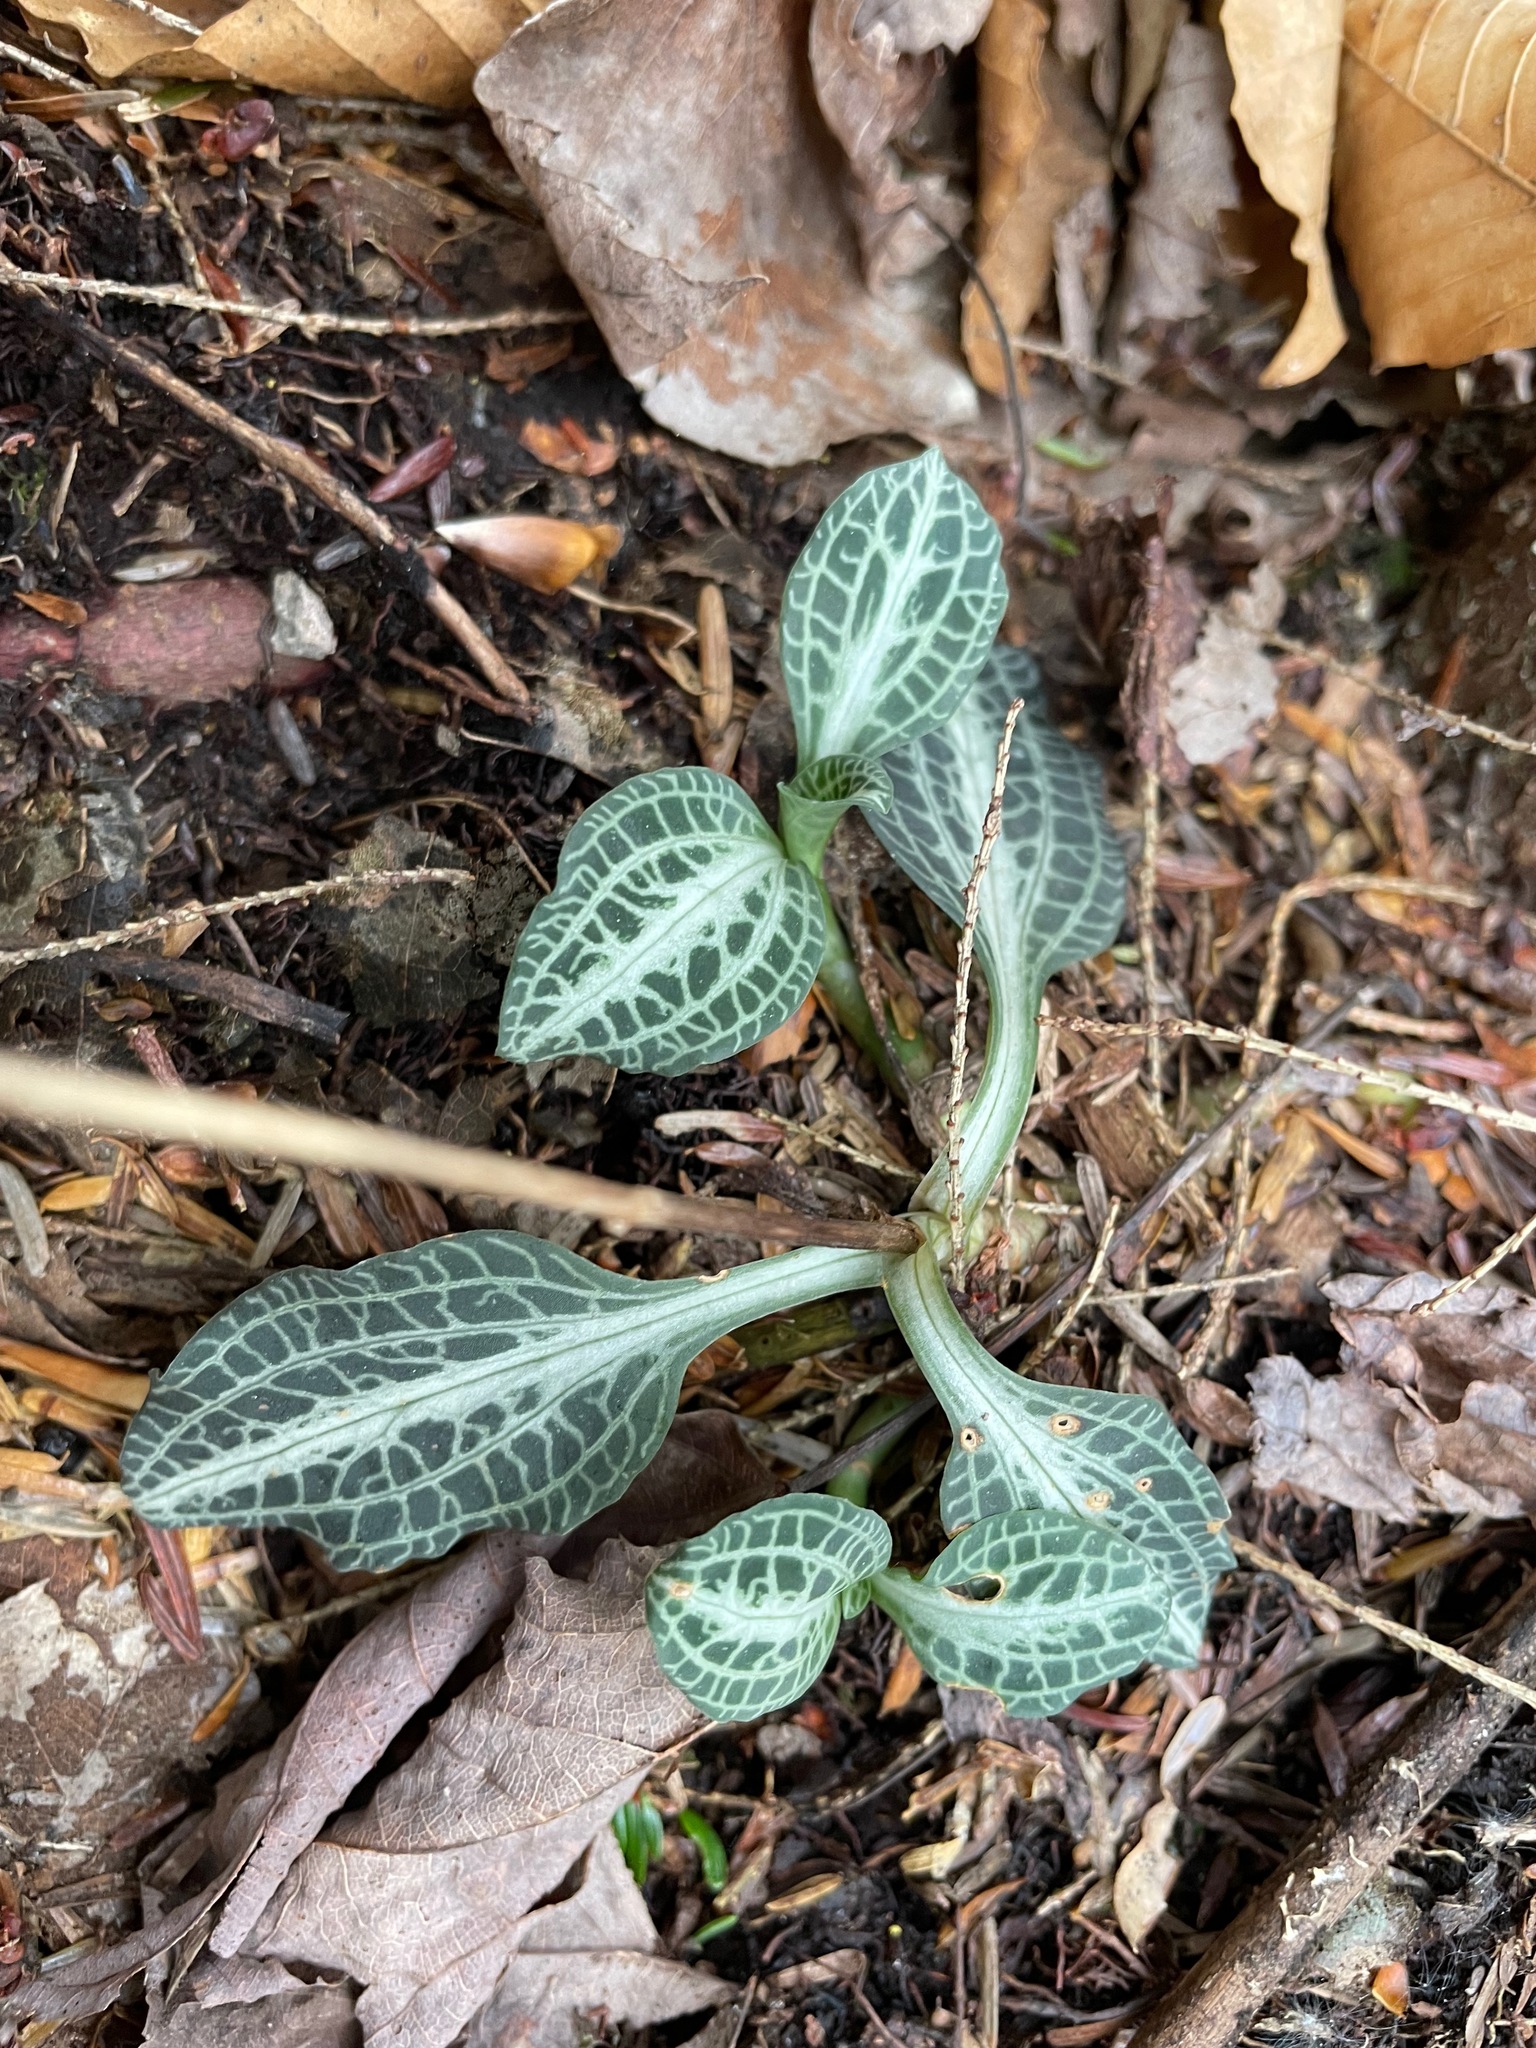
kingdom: Plantae
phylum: Tracheophyta
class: Liliopsida
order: Asparagales
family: Orchidaceae
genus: Goodyera
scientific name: Goodyera pubescens
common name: Downy rattlesnake-plantain
